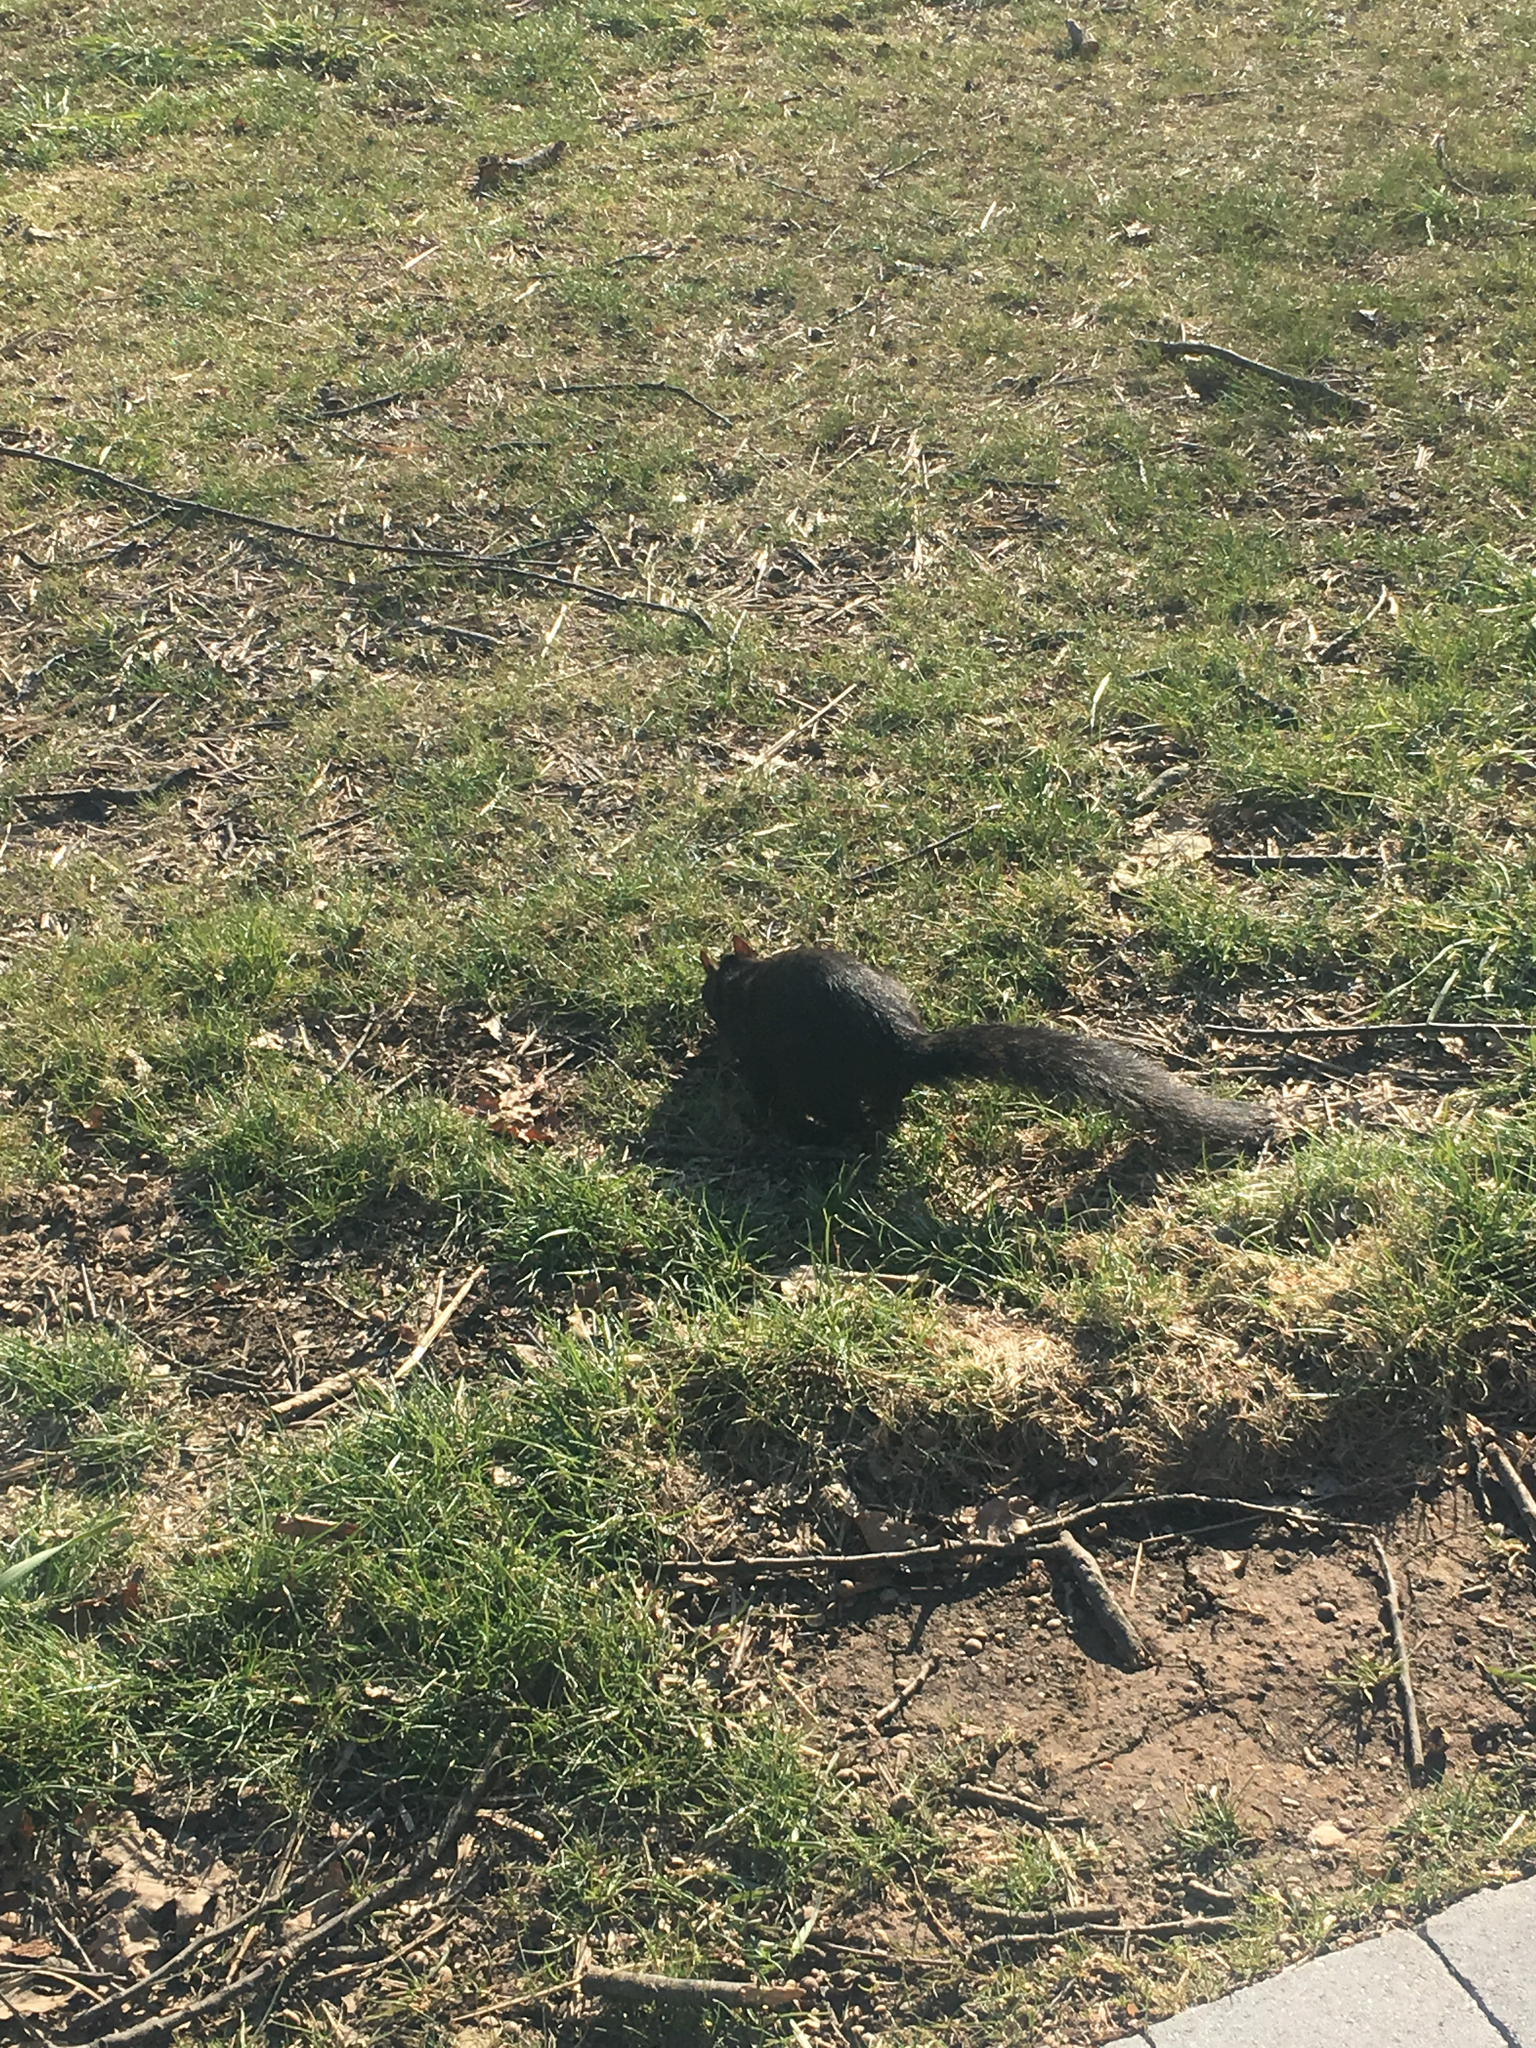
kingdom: Animalia
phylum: Chordata
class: Mammalia
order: Rodentia
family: Sciuridae
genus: Sciurus
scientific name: Sciurus carolinensis
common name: Eastern gray squirrel
